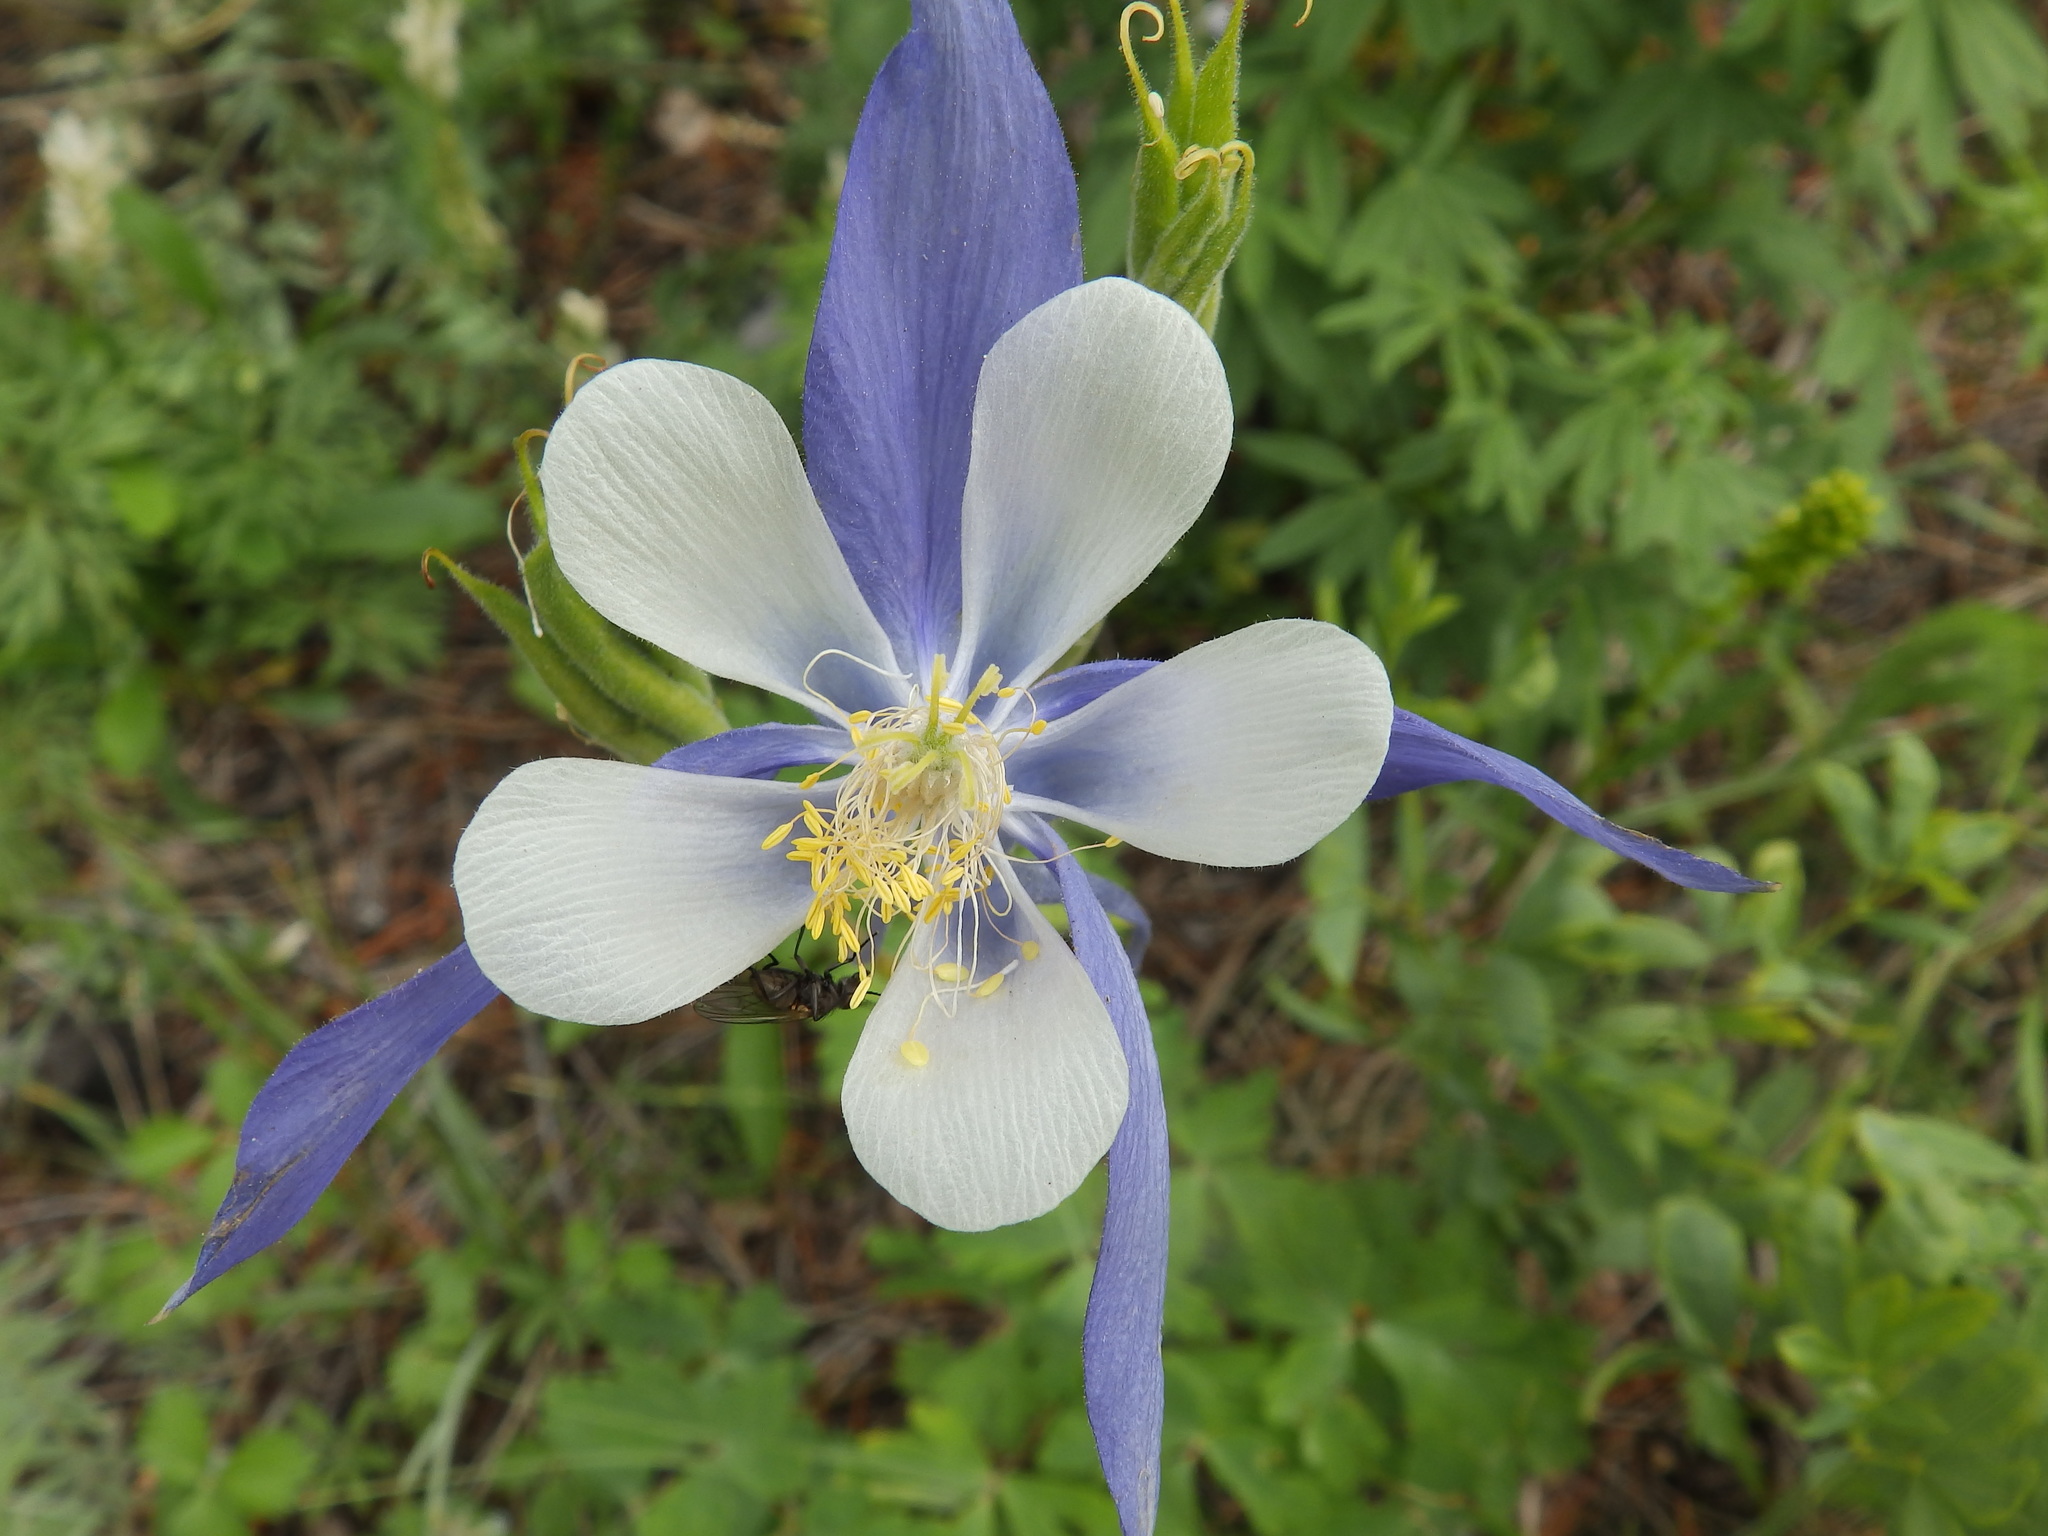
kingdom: Plantae
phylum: Tracheophyta
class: Magnoliopsida
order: Ranunculales
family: Ranunculaceae
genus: Aquilegia
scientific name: Aquilegia coerulea
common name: Rocky mountain columbine
